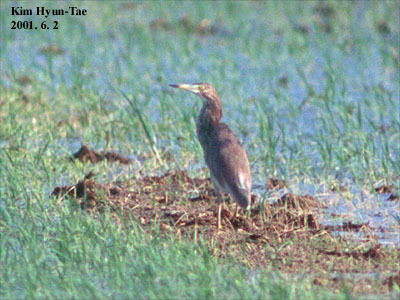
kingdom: Animalia
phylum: Chordata
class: Aves
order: Pelecaniformes
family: Ardeidae
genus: Ardeola
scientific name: Ardeola bacchus
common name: Chinese pond heron
